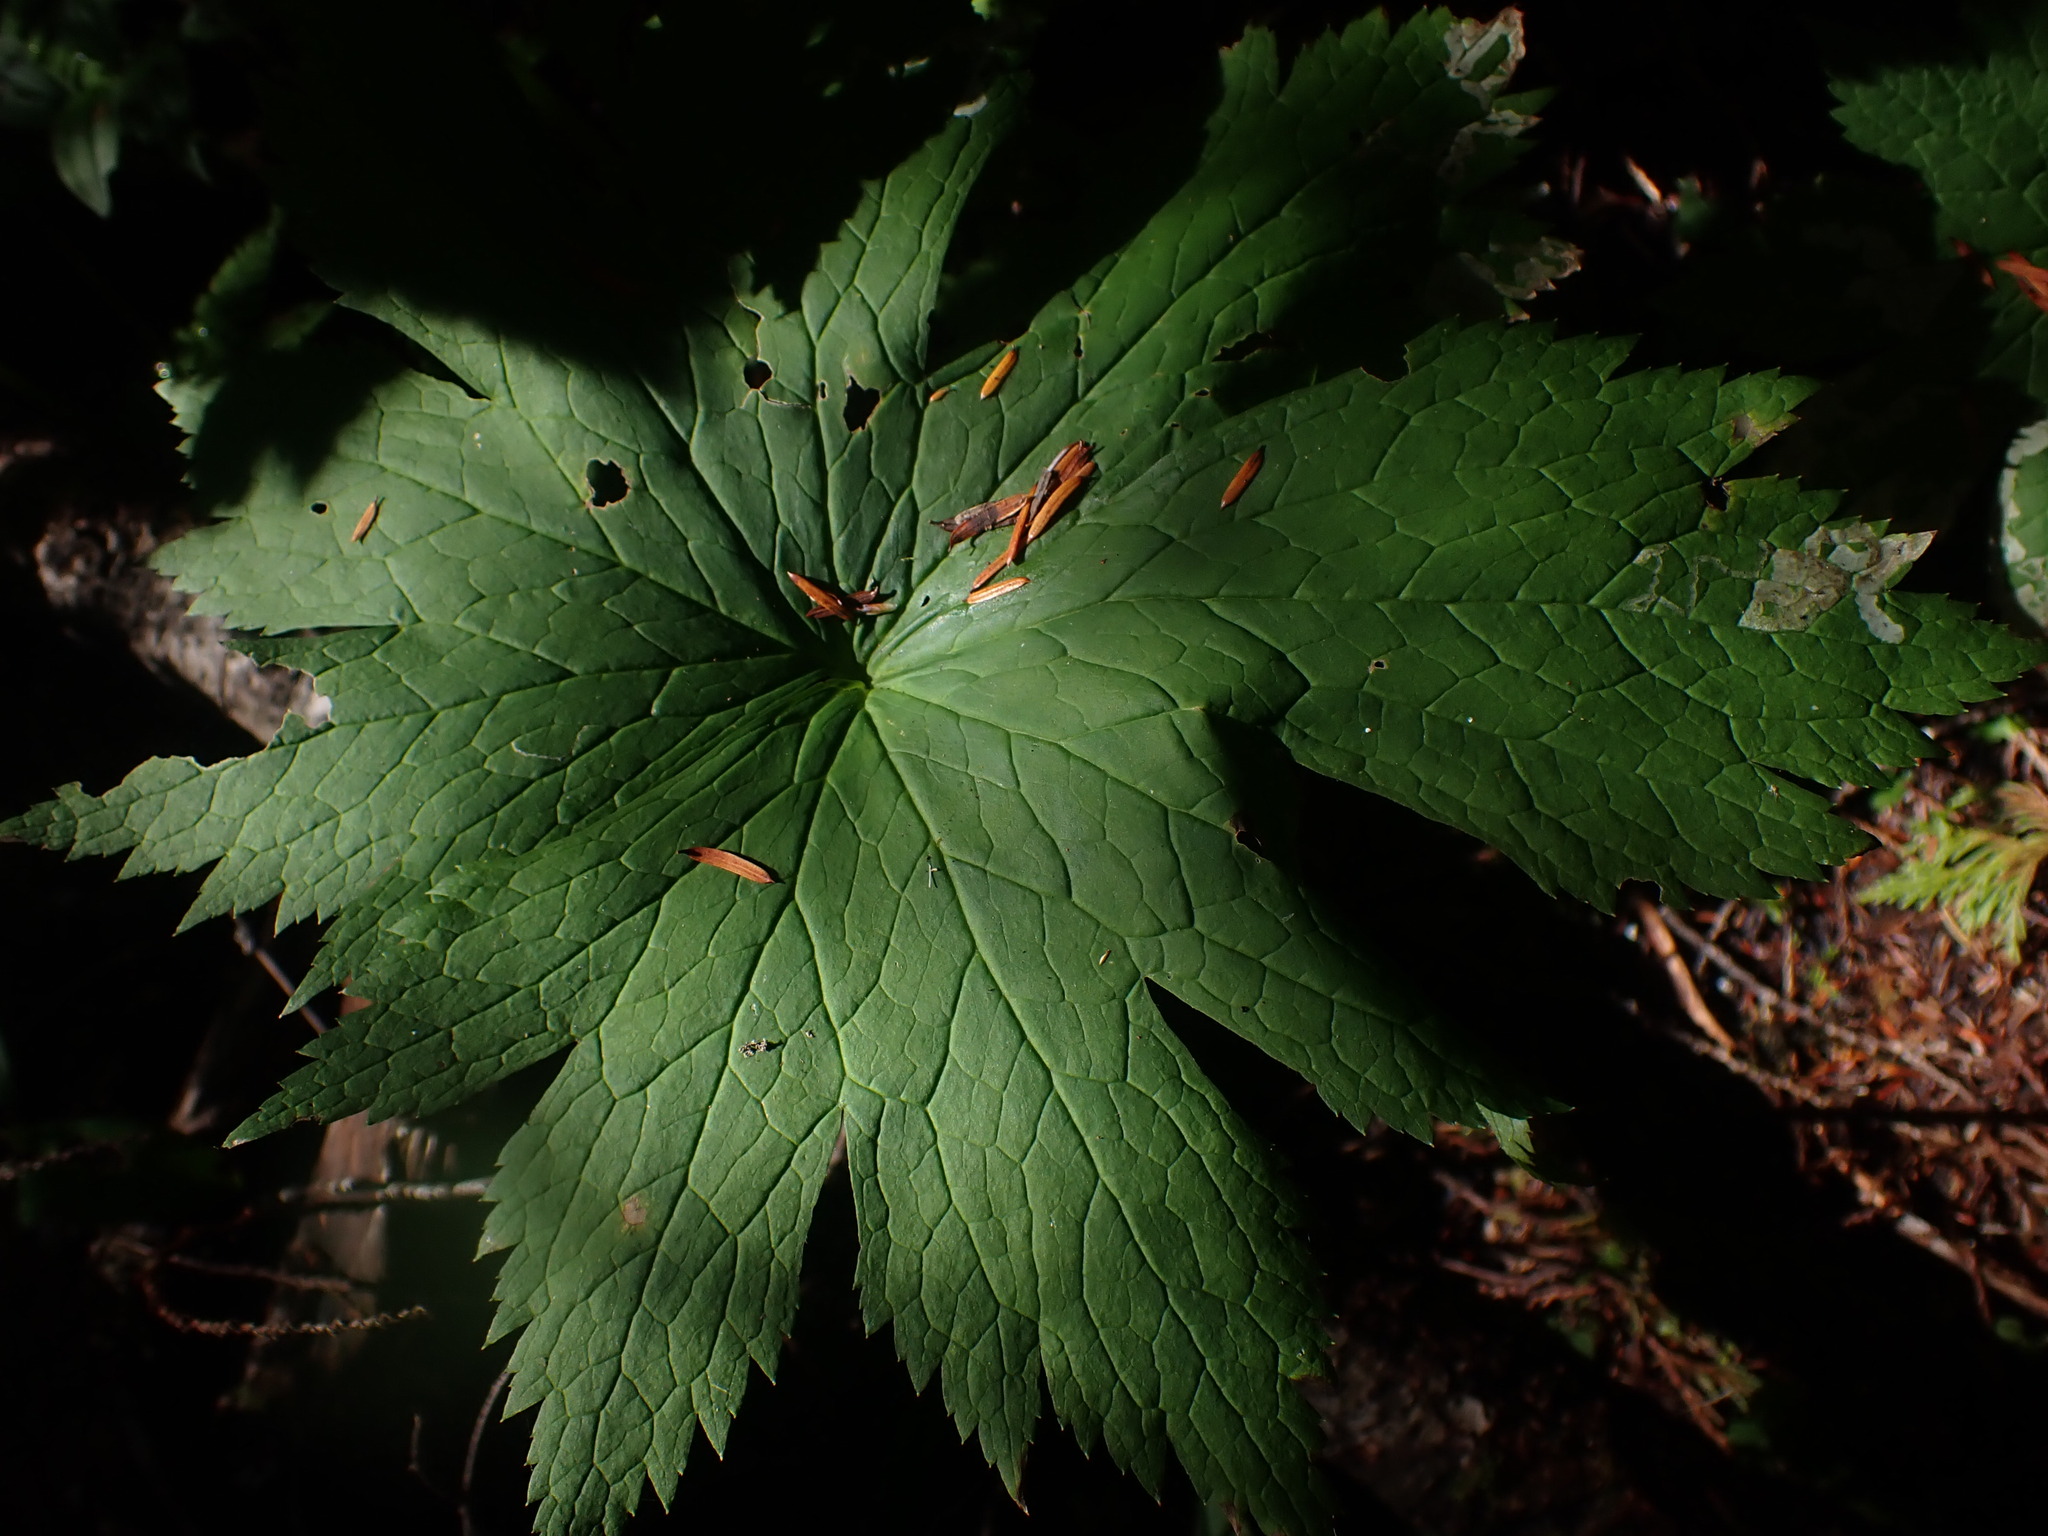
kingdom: Plantae
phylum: Tracheophyta
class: Magnoliopsida
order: Ranunculales
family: Ranunculaceae
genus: Trautvetteria
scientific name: Trautvetteria carolinensis
